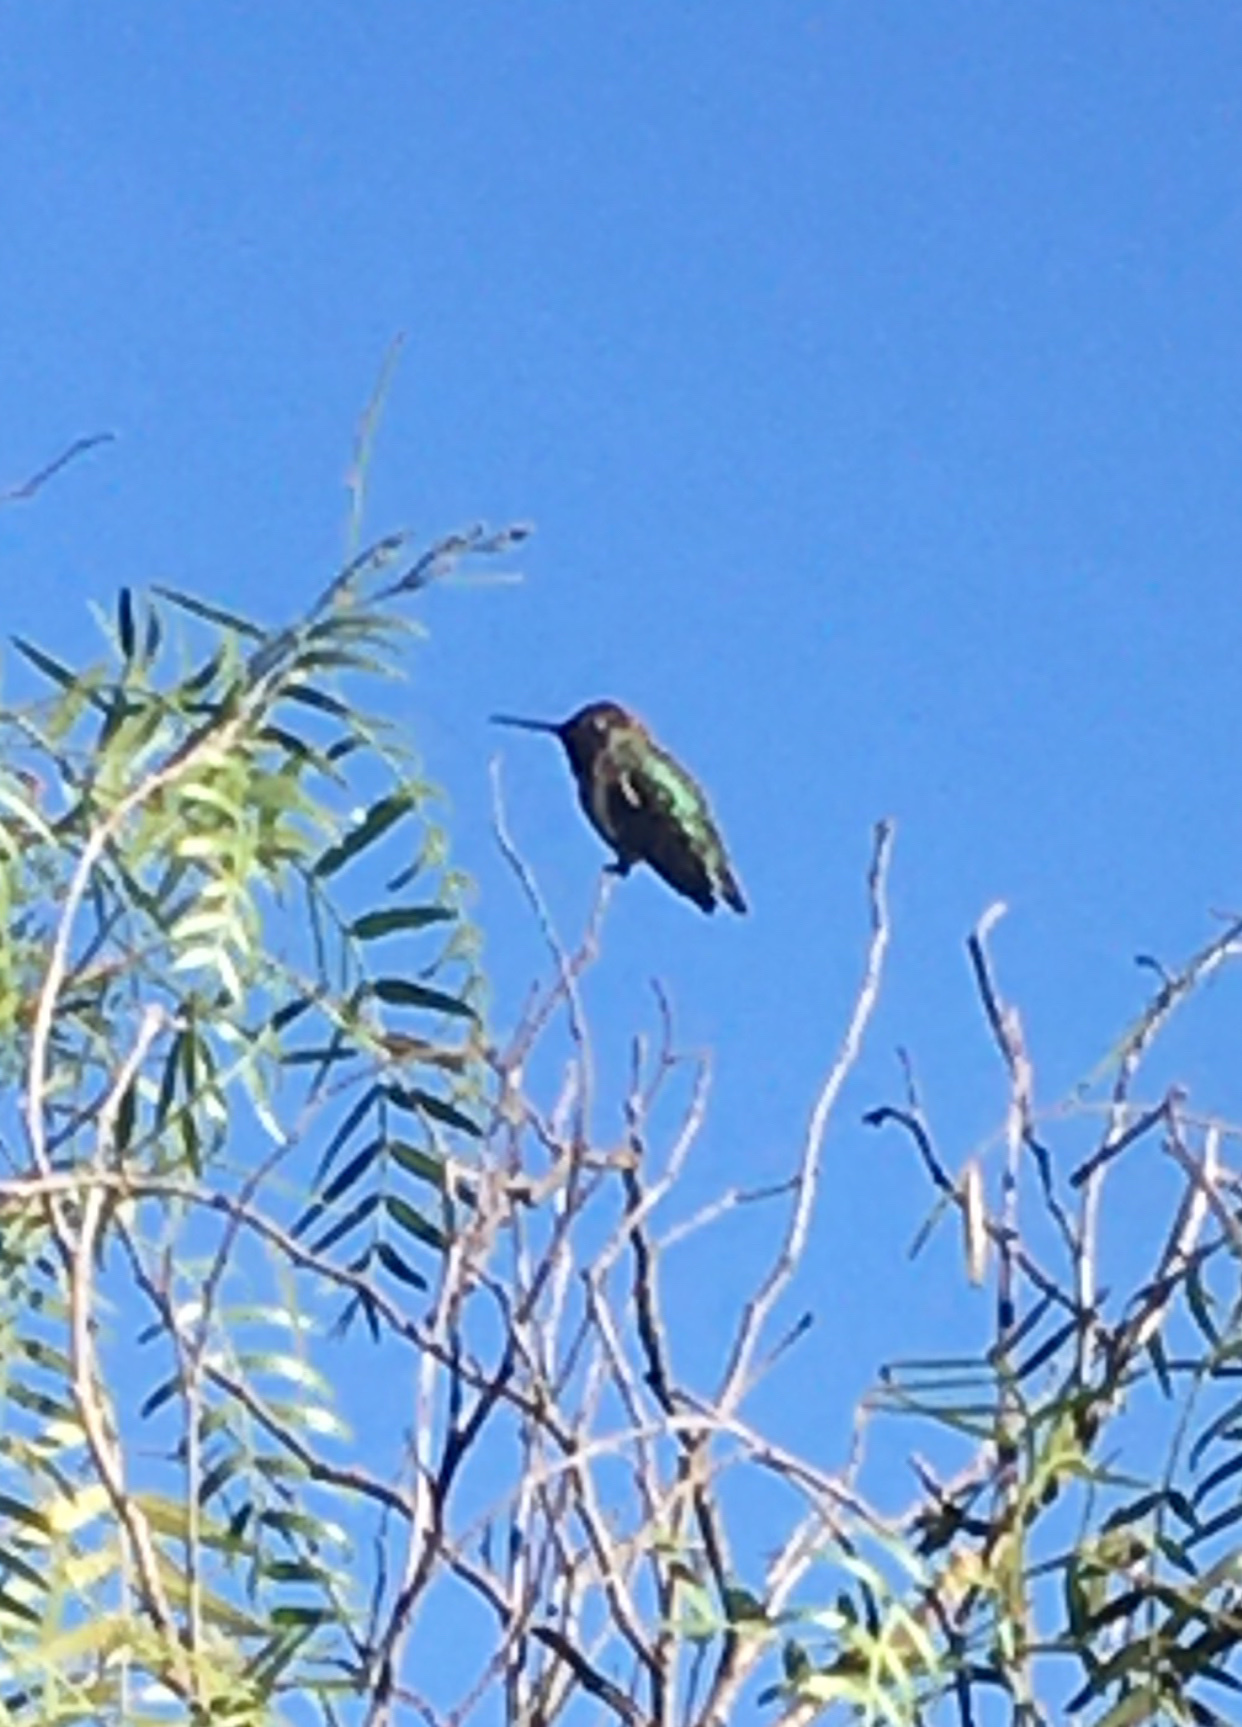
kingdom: Animalia
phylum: Chordata
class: Aves
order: Apodiformes
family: Trochilidae
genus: Calypte
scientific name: Calypte anna
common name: Anna's hummingbird
